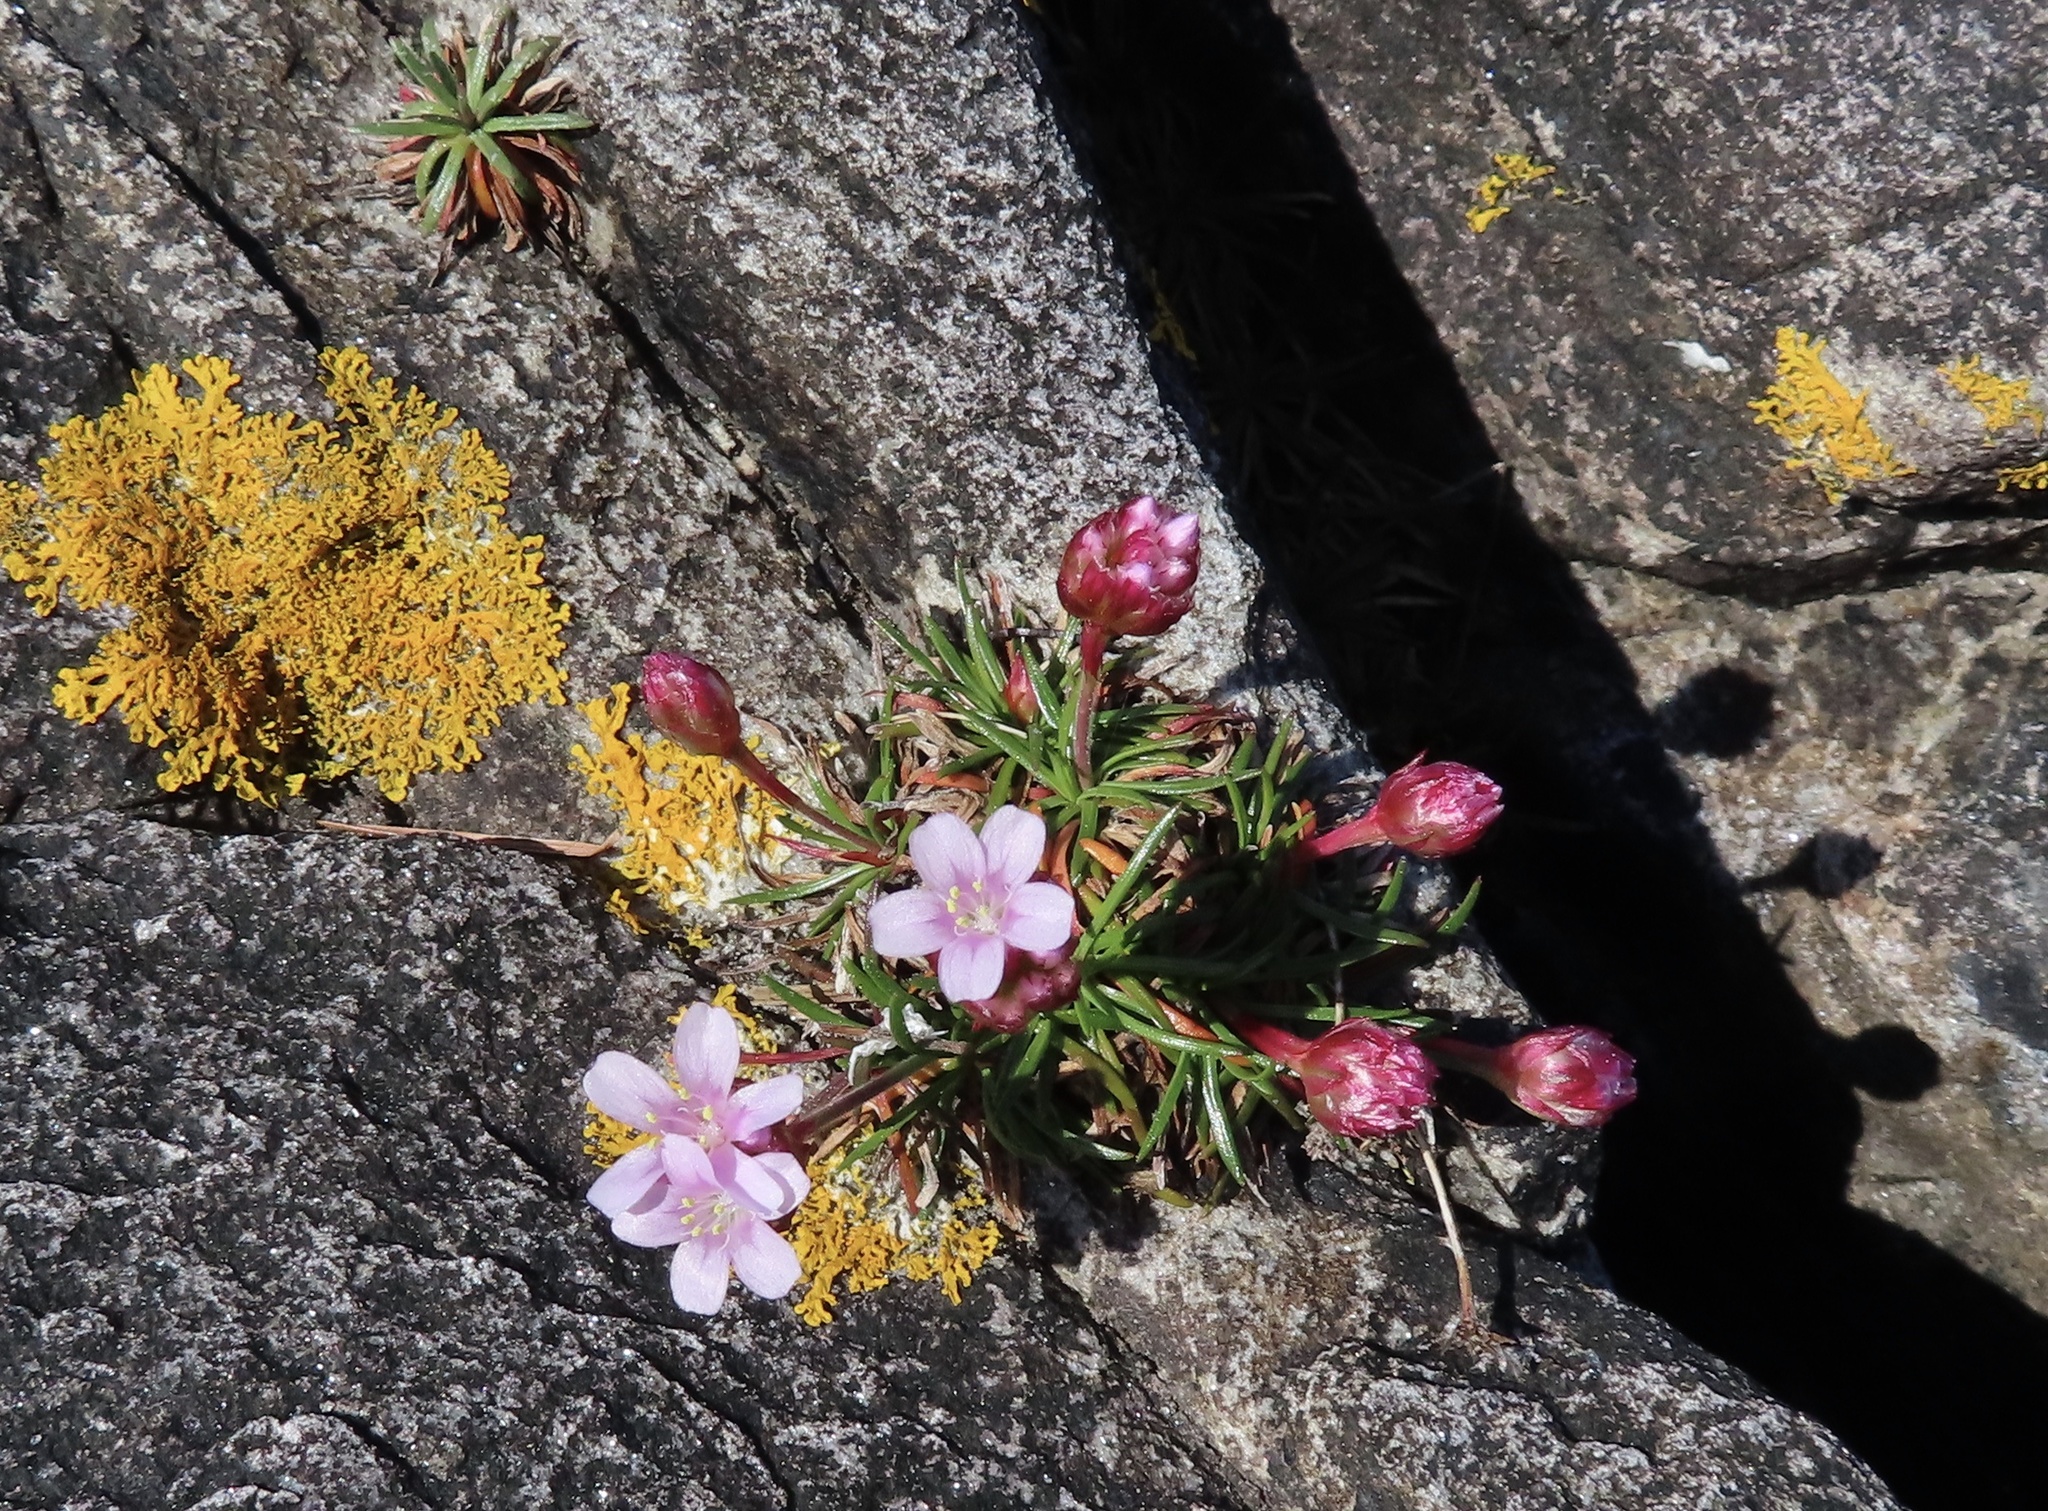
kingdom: Plantae
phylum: Tracheophyta
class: Magnoliopsida
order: Caryophyllales
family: Plumbaginaceae
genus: Armeria
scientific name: Armeria maritima
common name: Thrift
